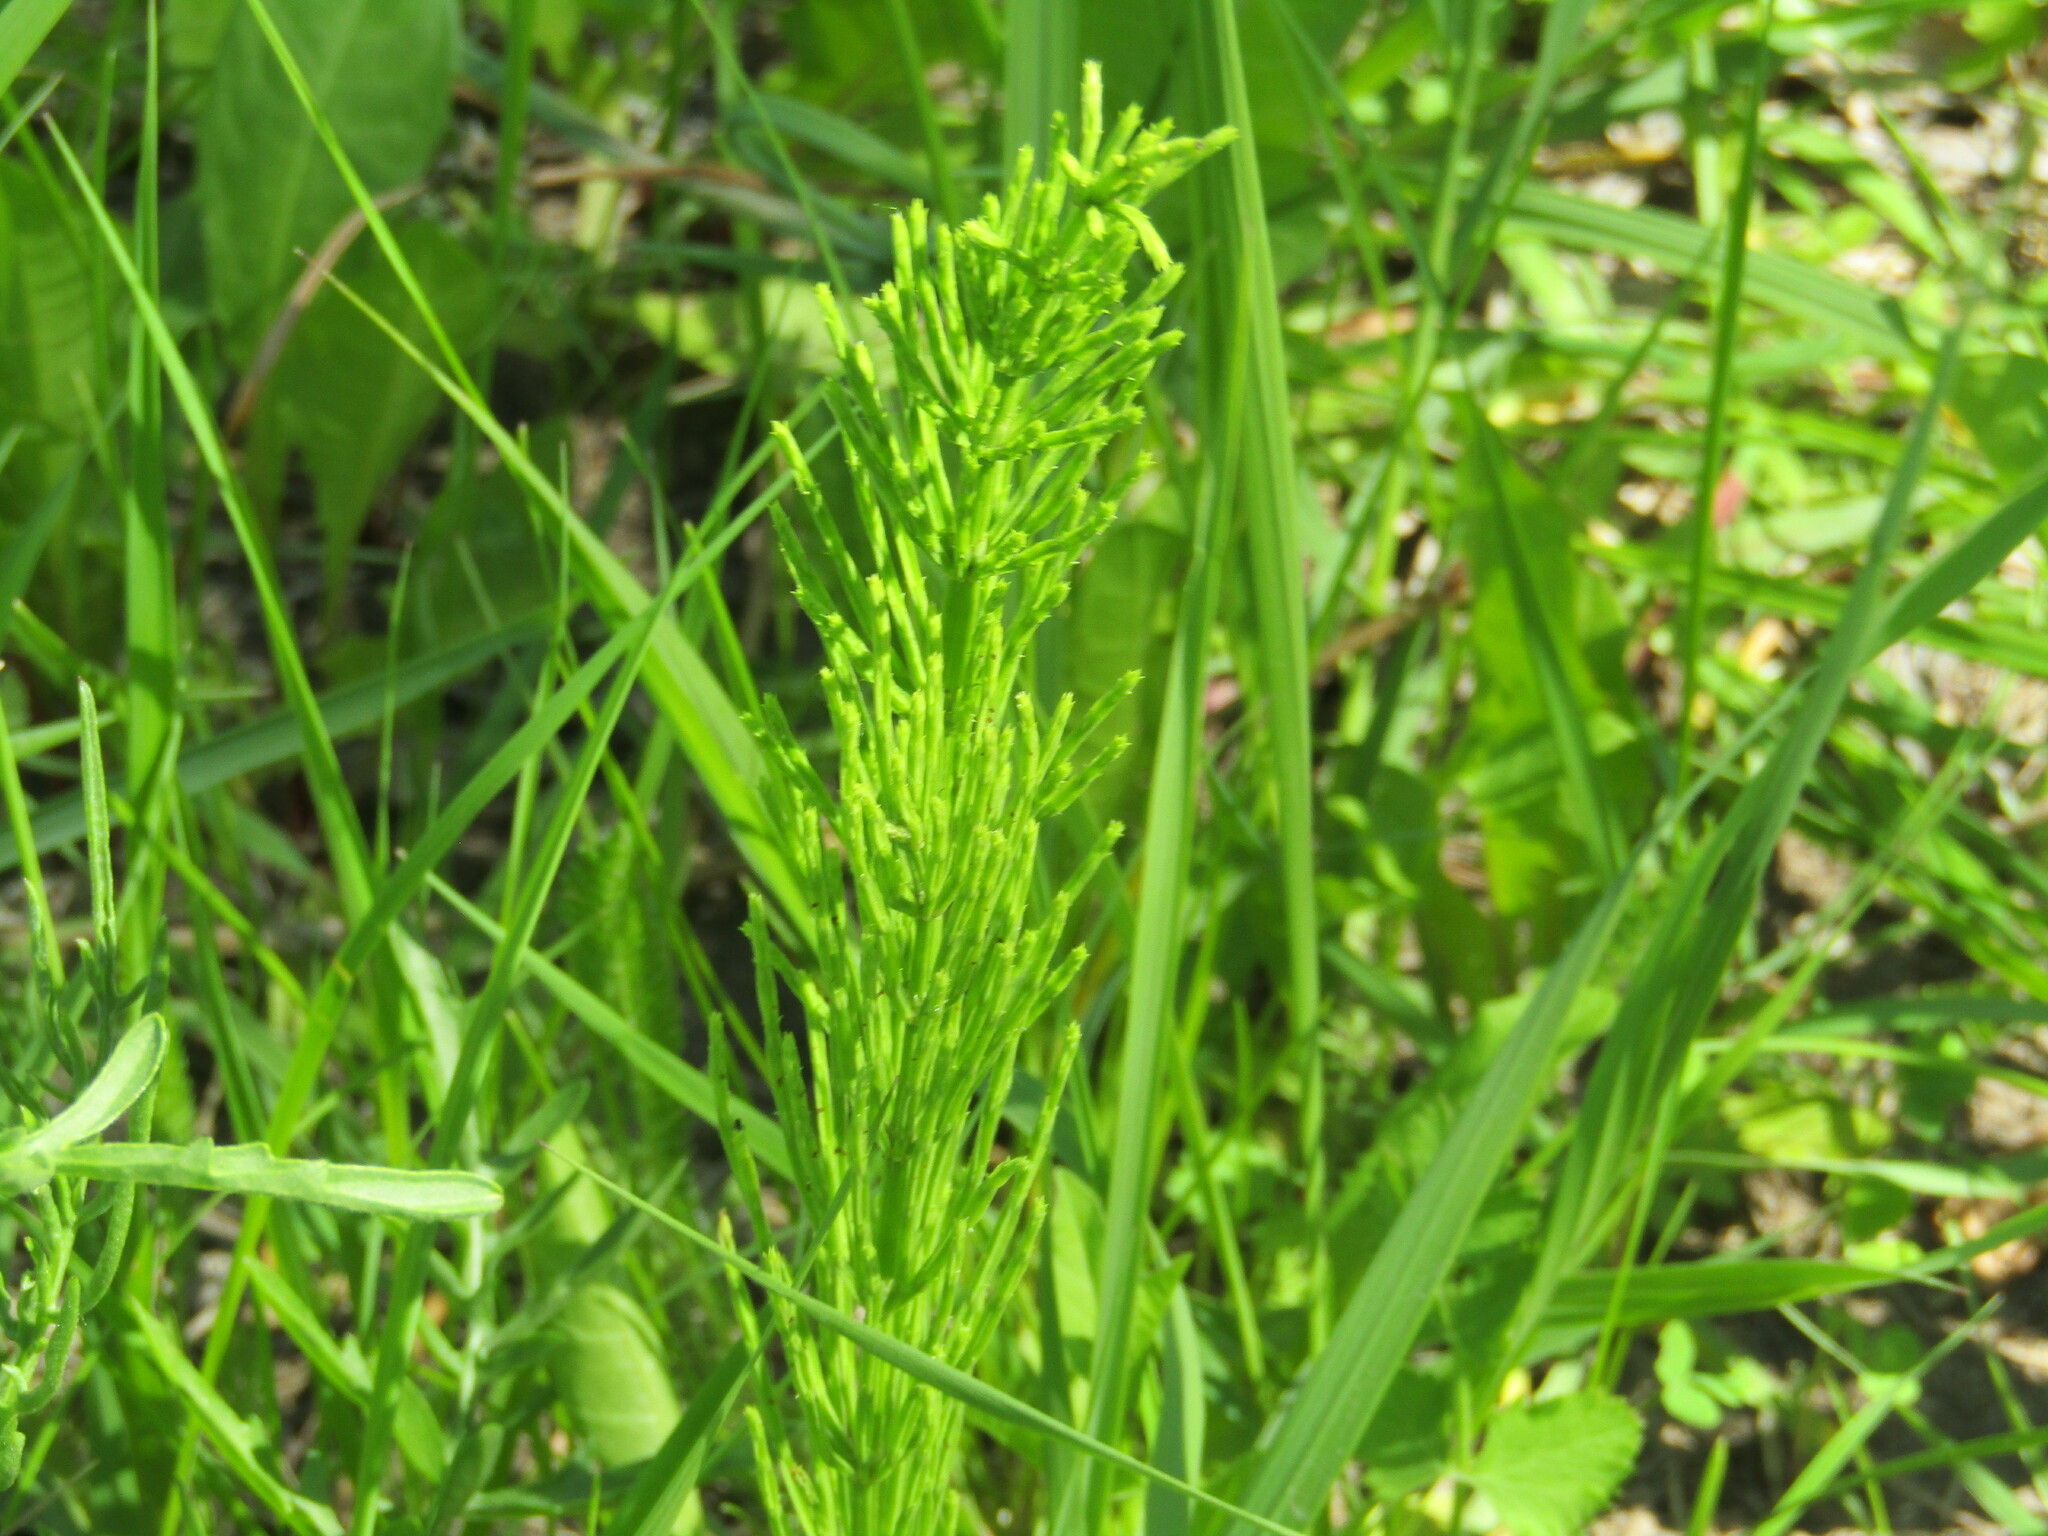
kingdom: Plantae
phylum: Tracheophyta
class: Polypodiopsida
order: Equisetales
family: Equisetaceae
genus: Equisetum
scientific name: Equisetum arvense
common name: Field horsetail
